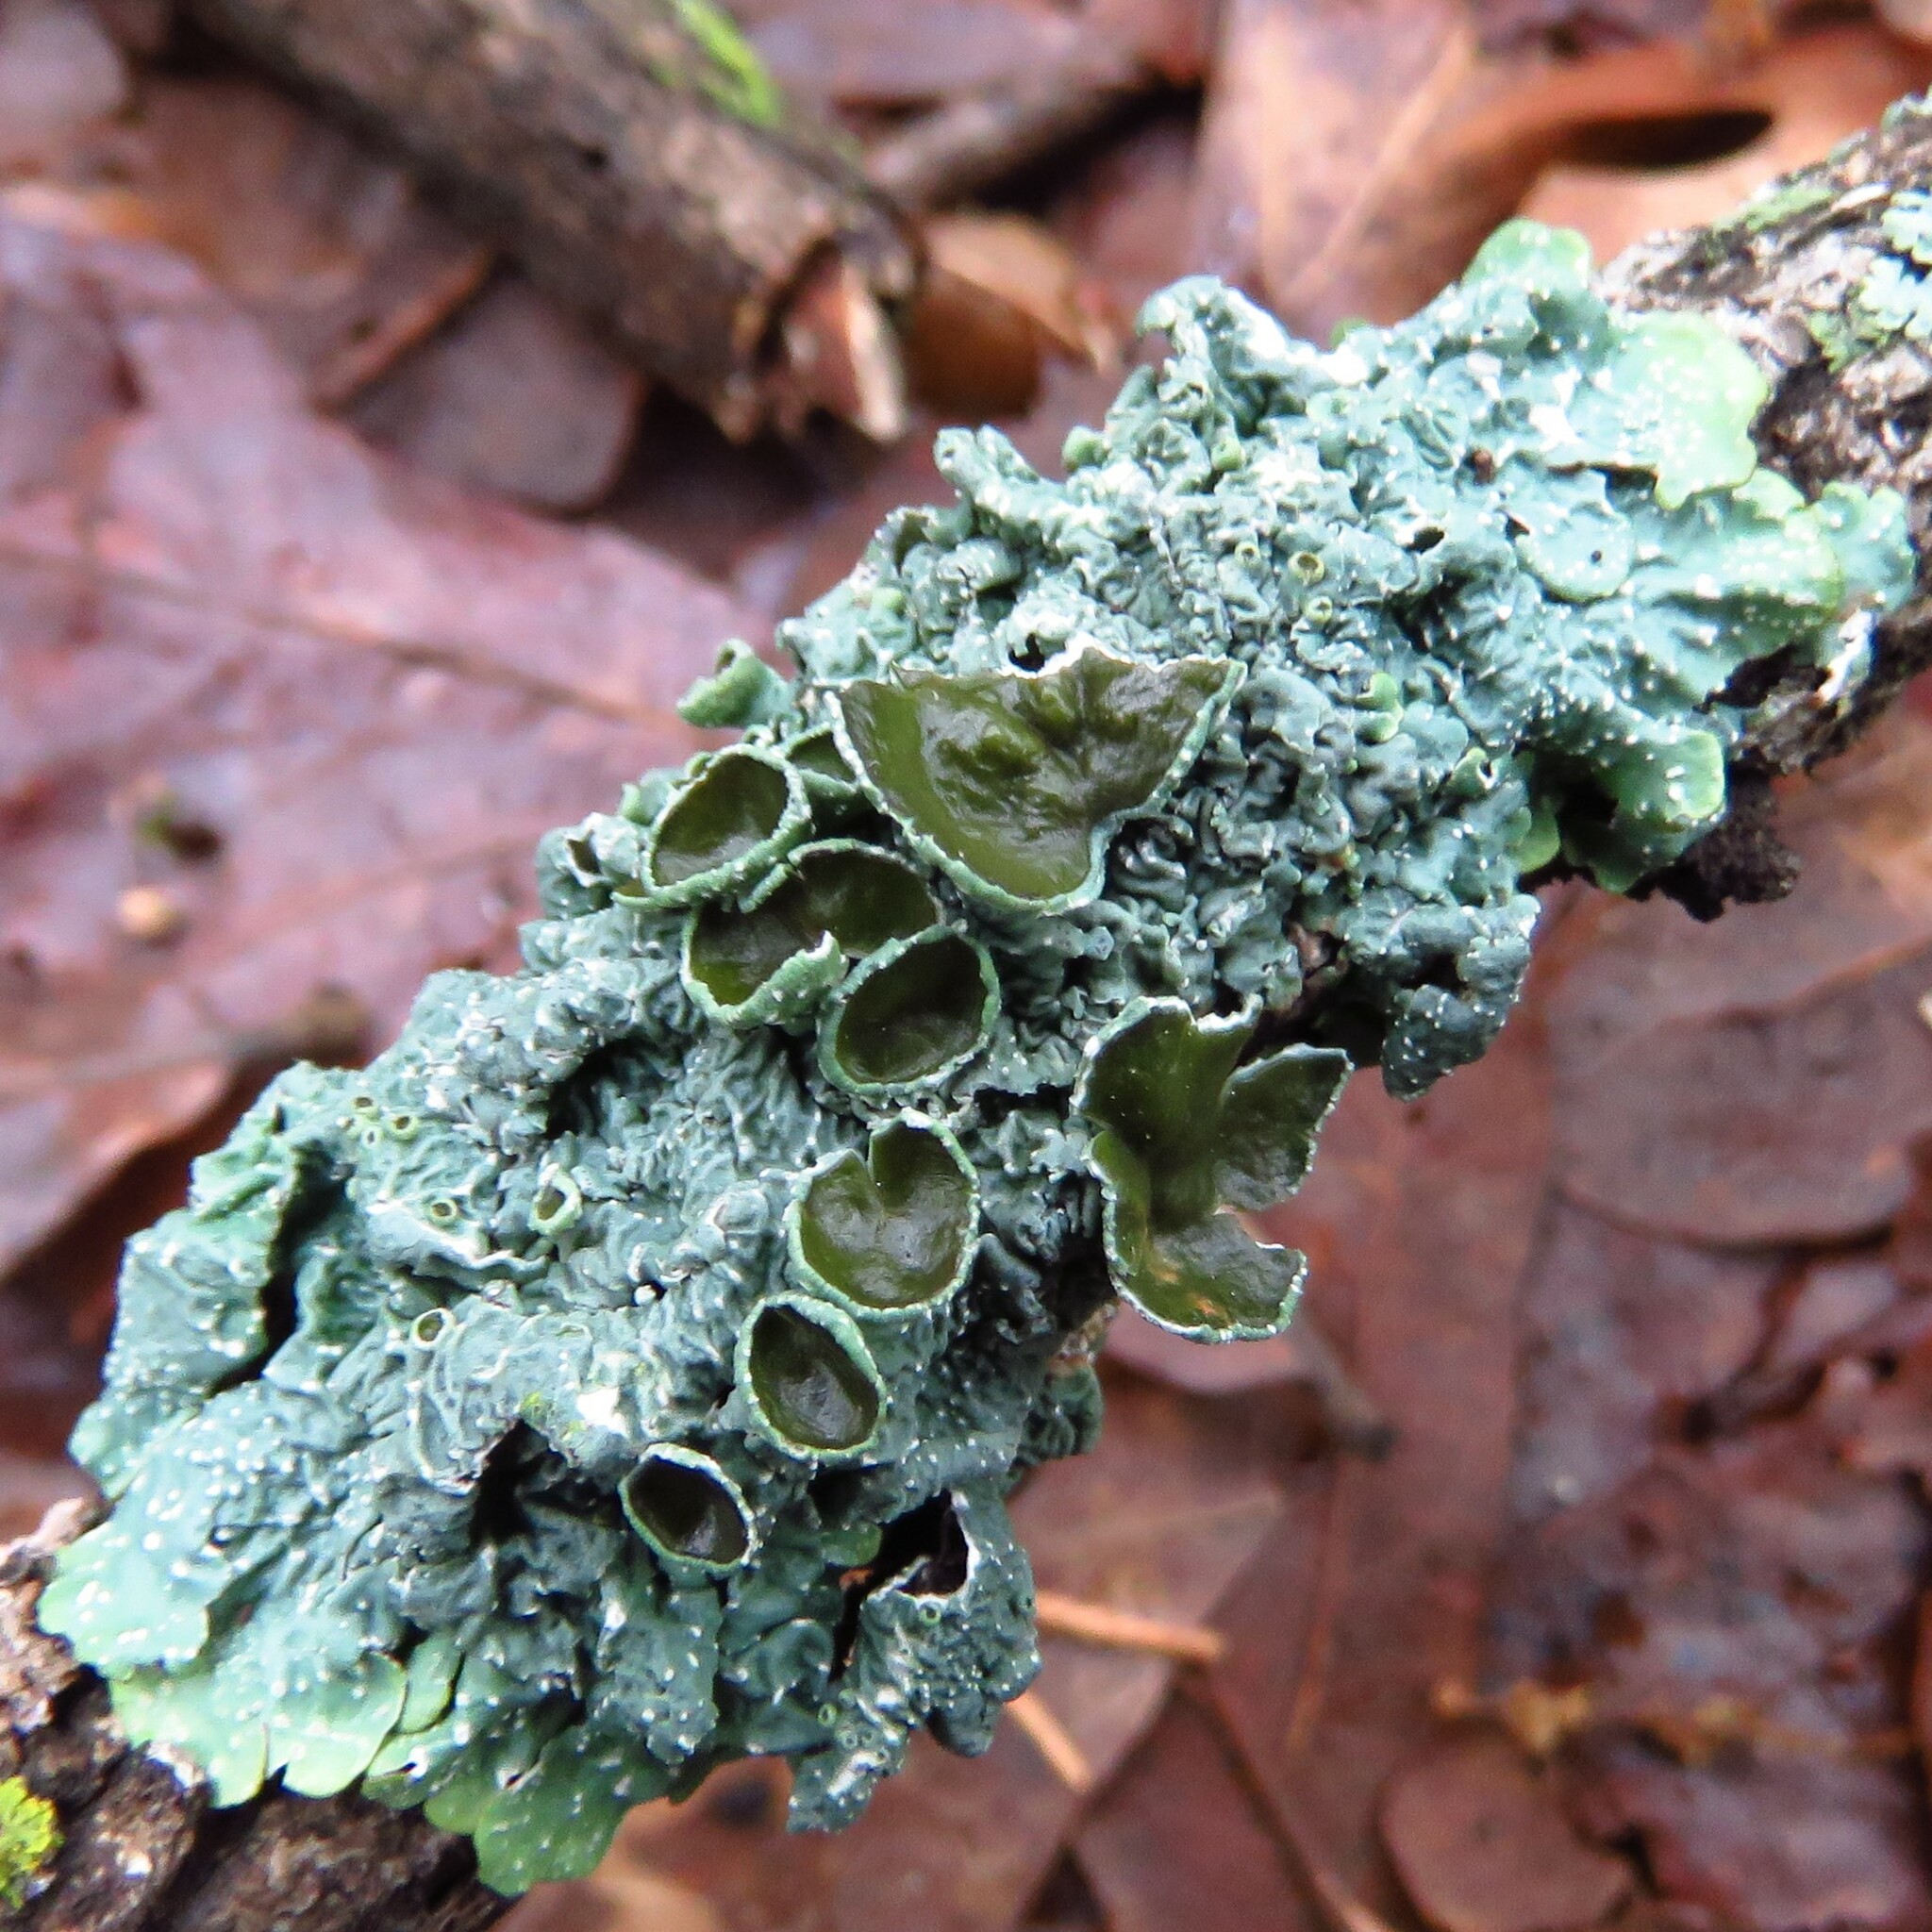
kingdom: Fungi
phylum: Ascomycota
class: Lecanoromycetes
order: Lecanorales
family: Parmeliaceae
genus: Punctelia
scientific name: Punctelia bolliana
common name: Eastern speckled shield lichen
